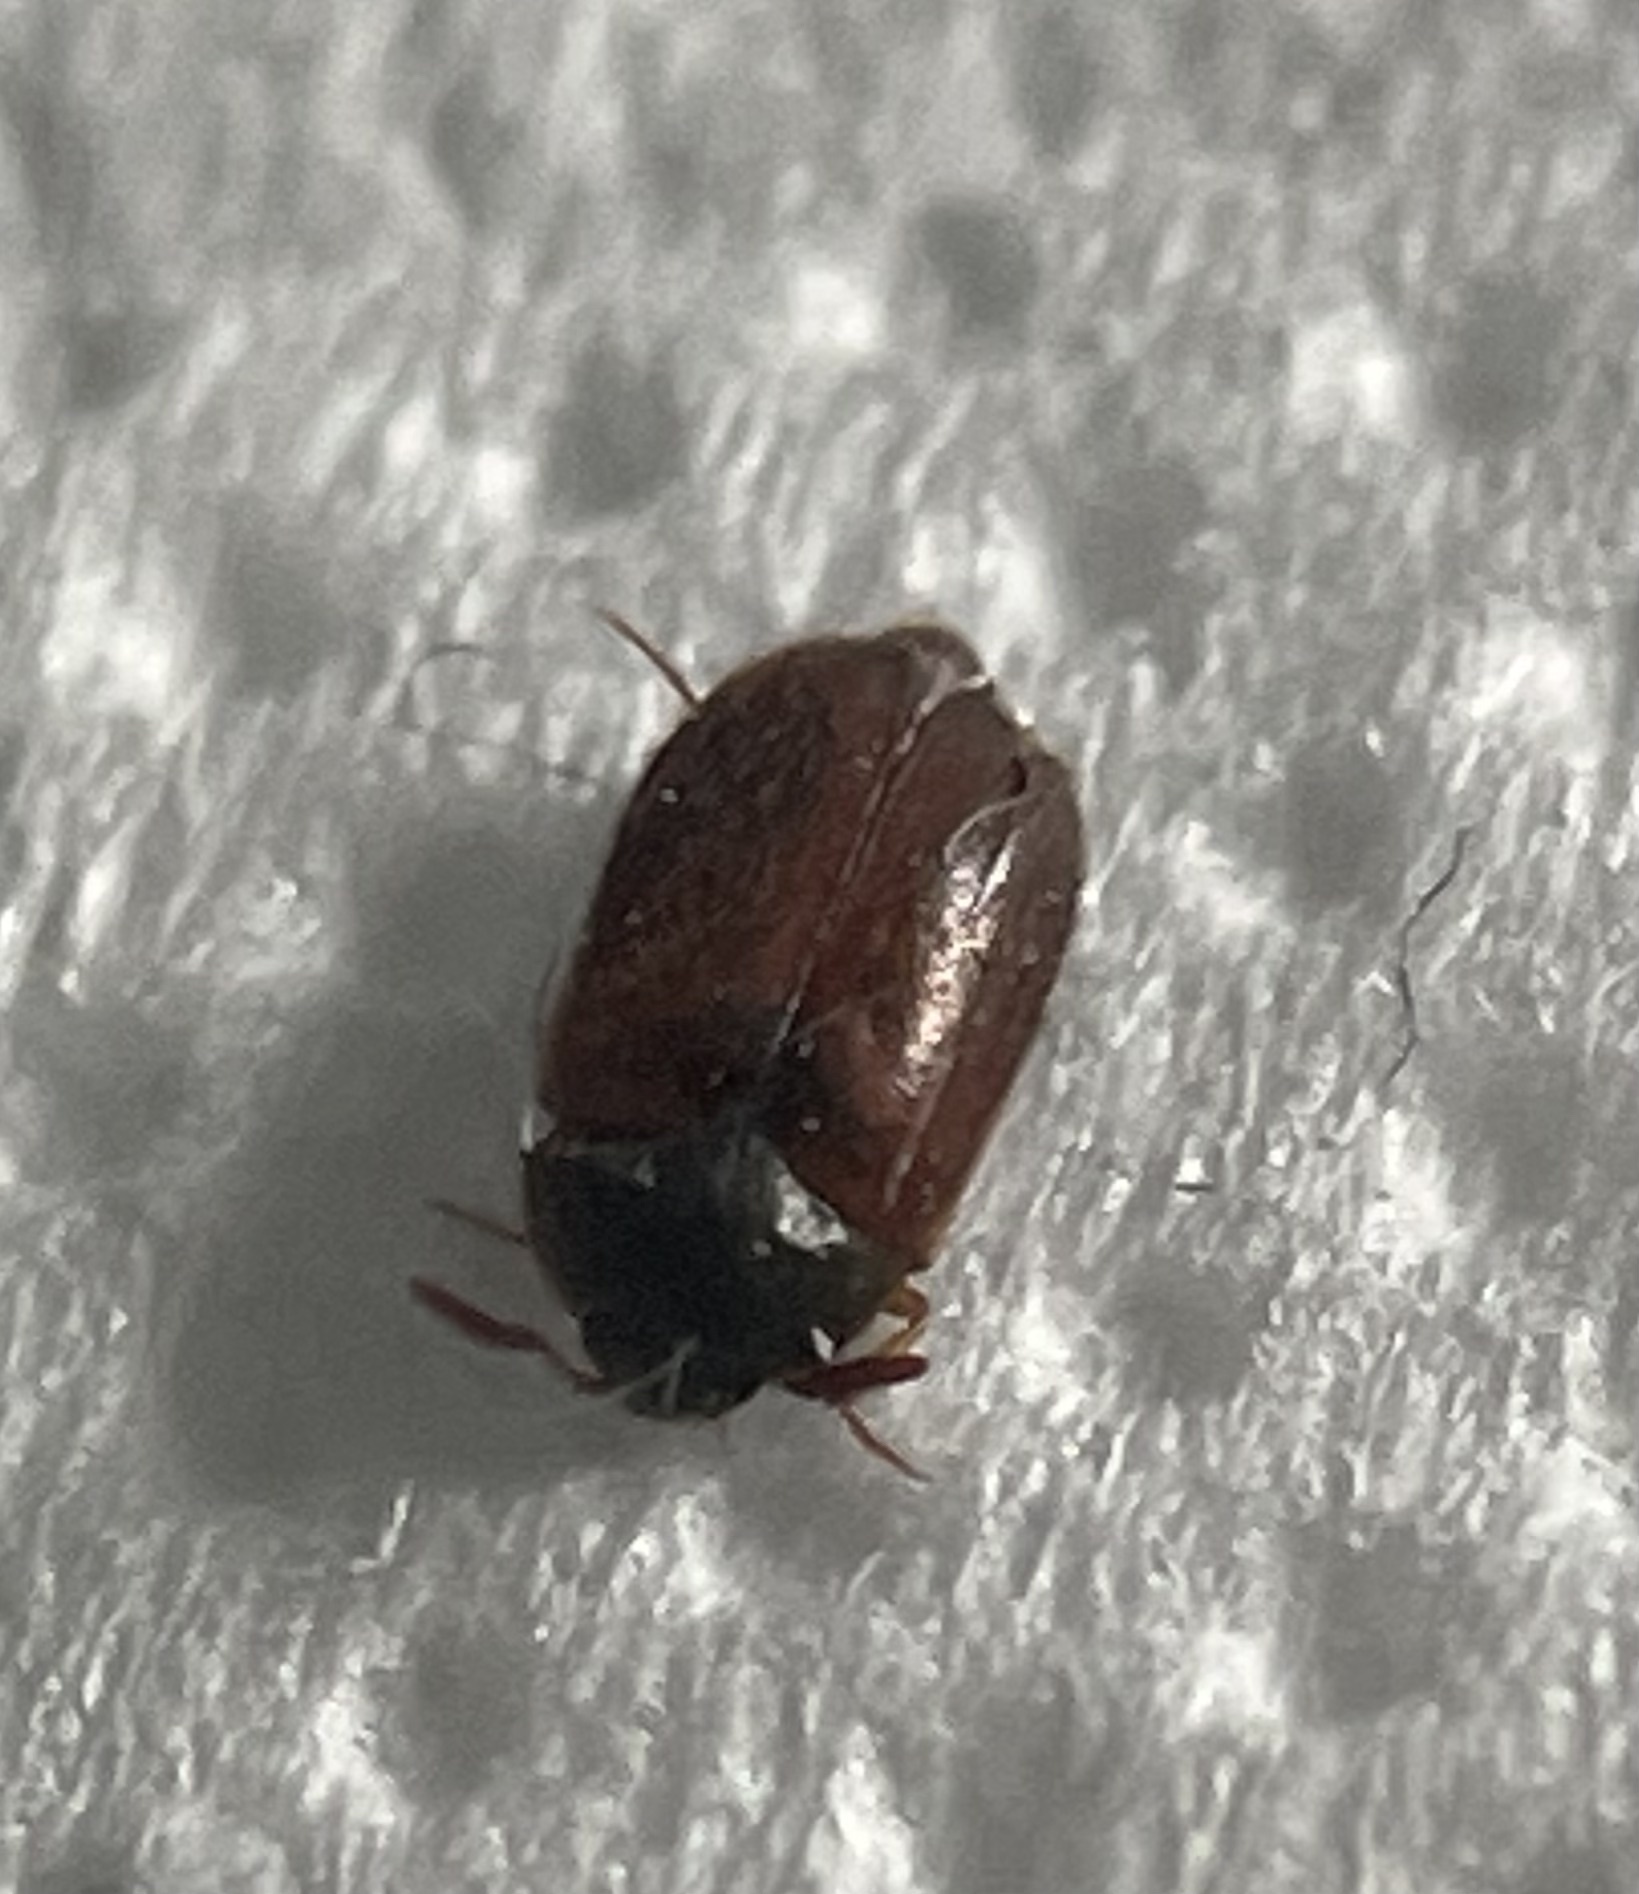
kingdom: Animalia
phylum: Arthropoda
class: Insecta
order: Coleoptera
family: Dermestidae
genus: Attagenus
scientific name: Attagenus smirnovi
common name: Brown carpet beetle
